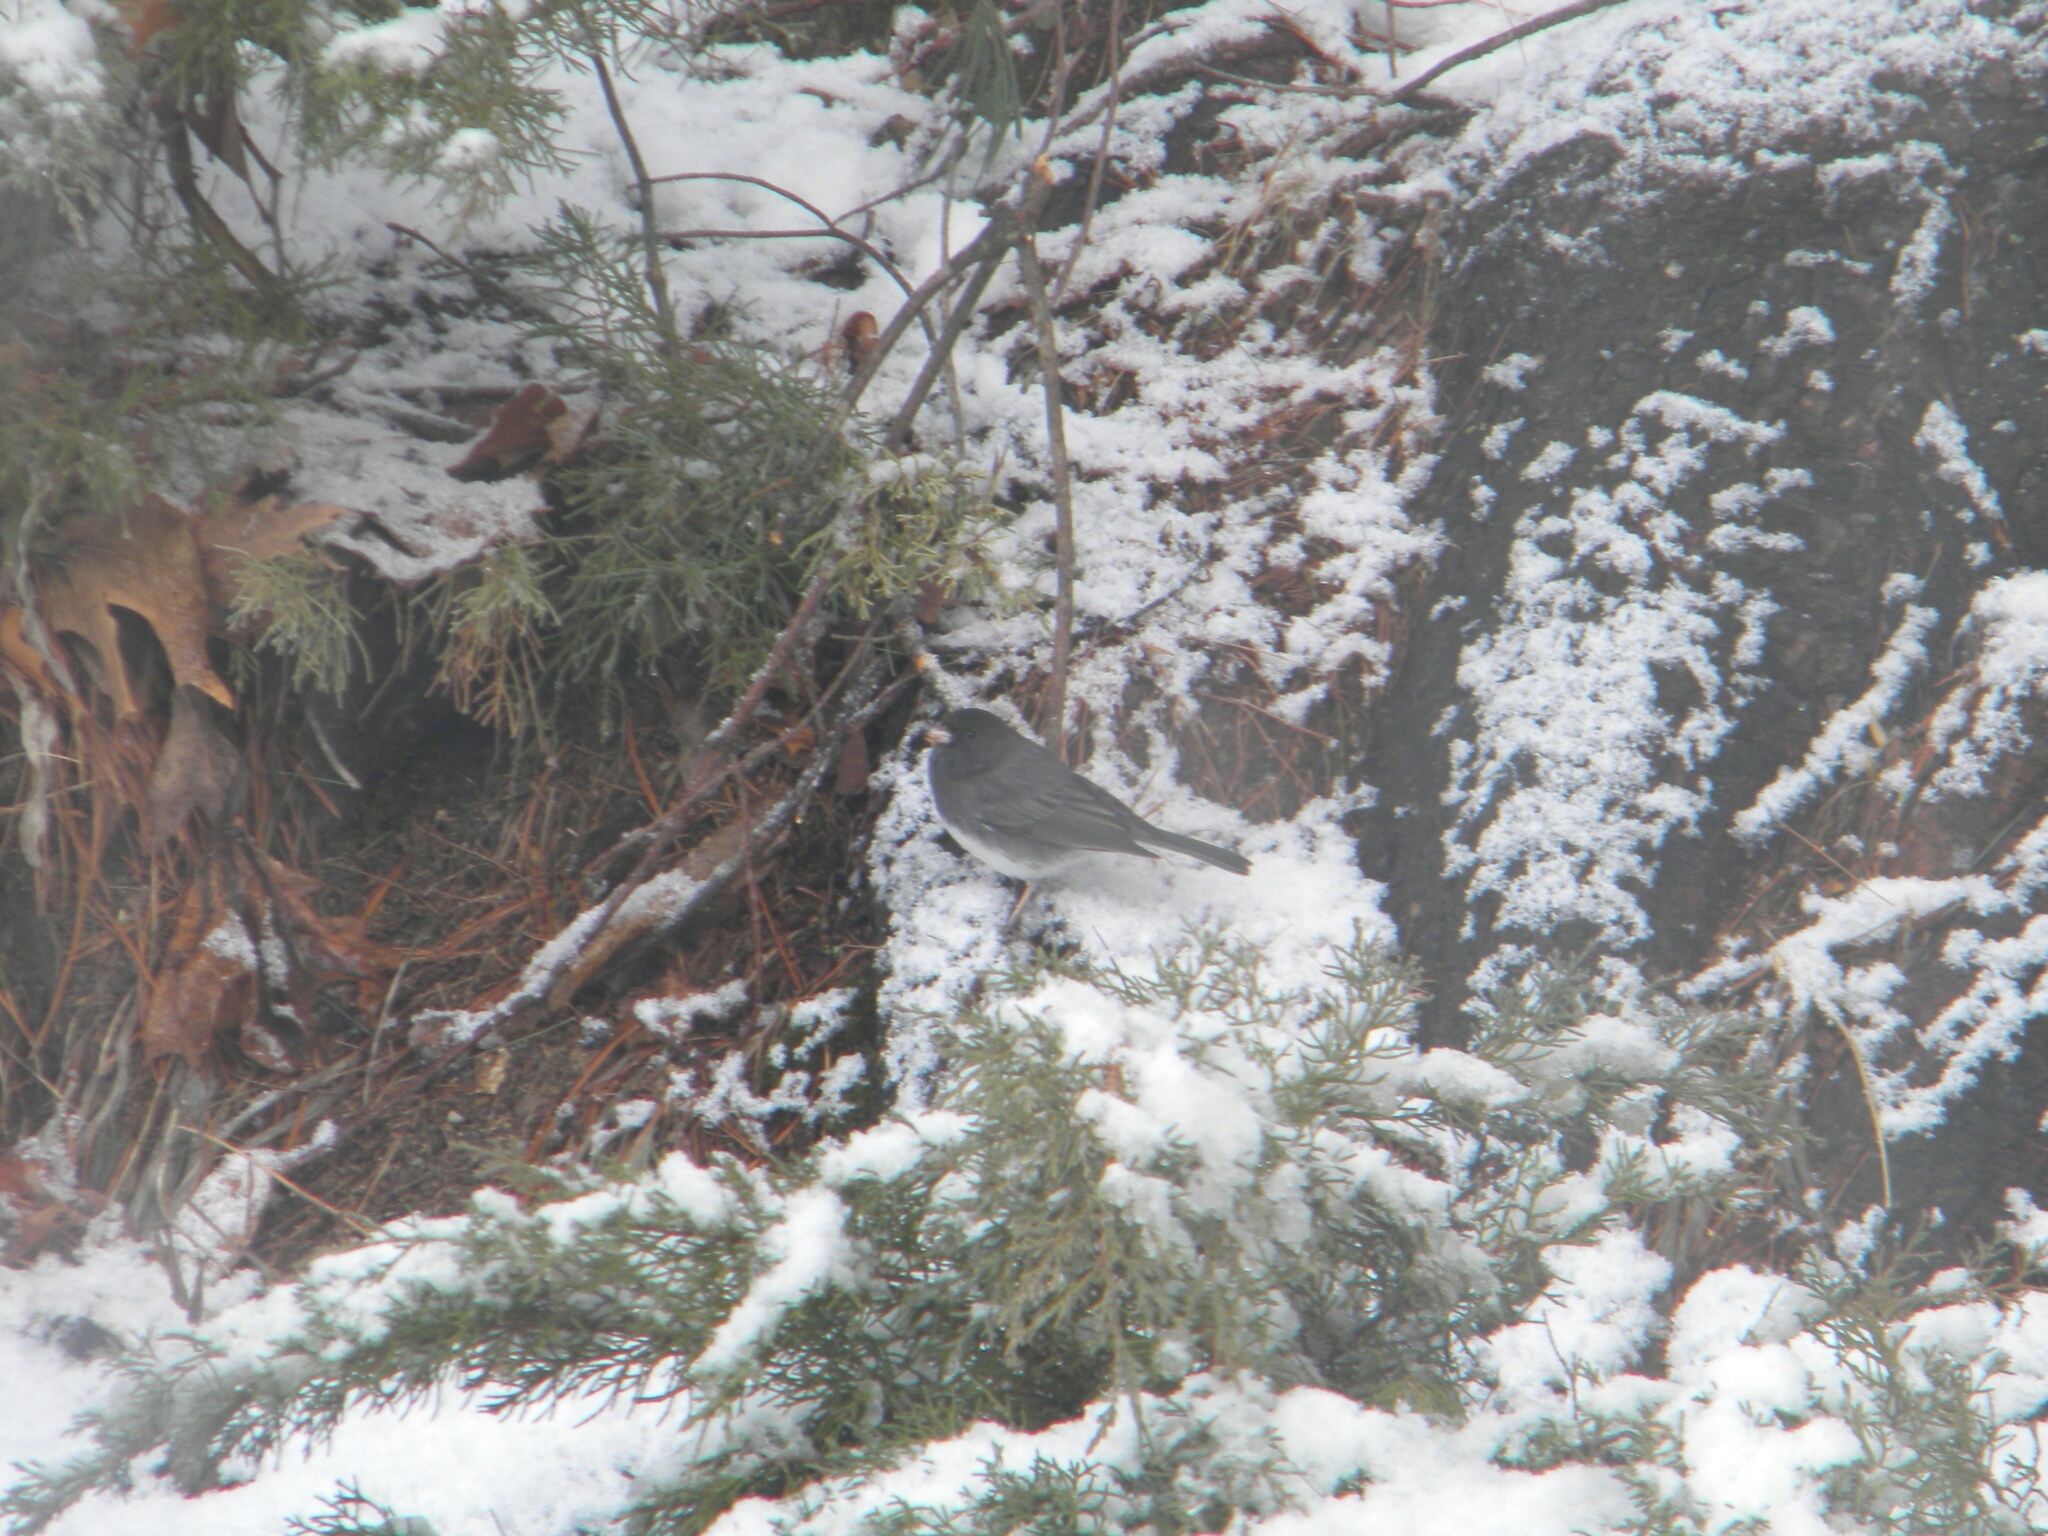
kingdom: Animalia
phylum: Chordata
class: Aves
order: Passeriformes
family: Passerellidae
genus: Junco
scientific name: Junco hyemalis
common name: Dark-eyed junco
